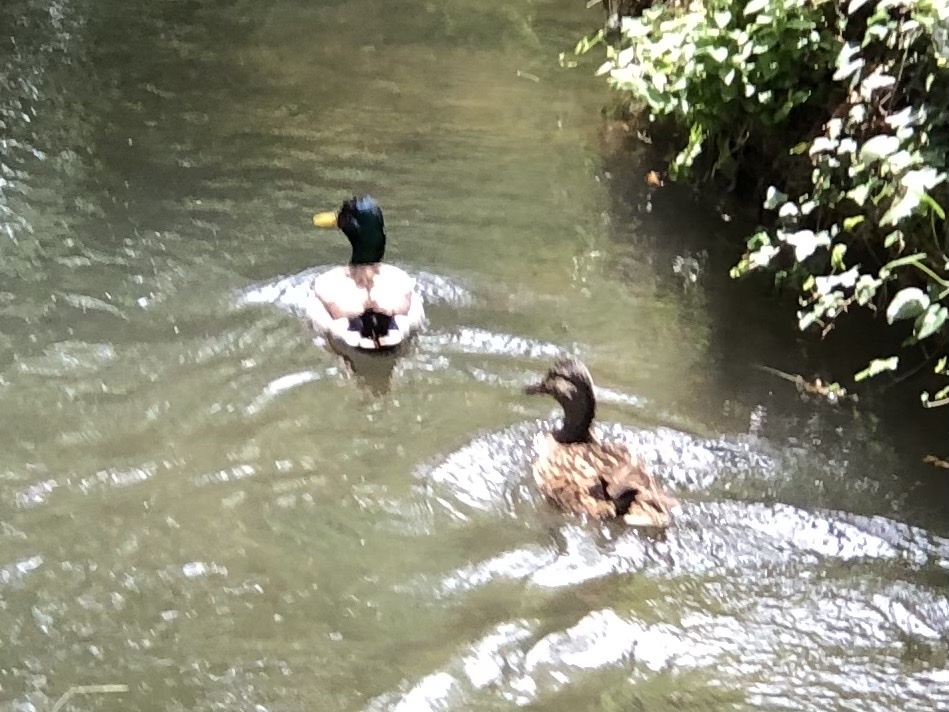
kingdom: Animalia
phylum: Chordata
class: Aves
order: Anseriformes
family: Anatidae
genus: Anas
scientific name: Anas platyrhynchos
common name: Mallard
